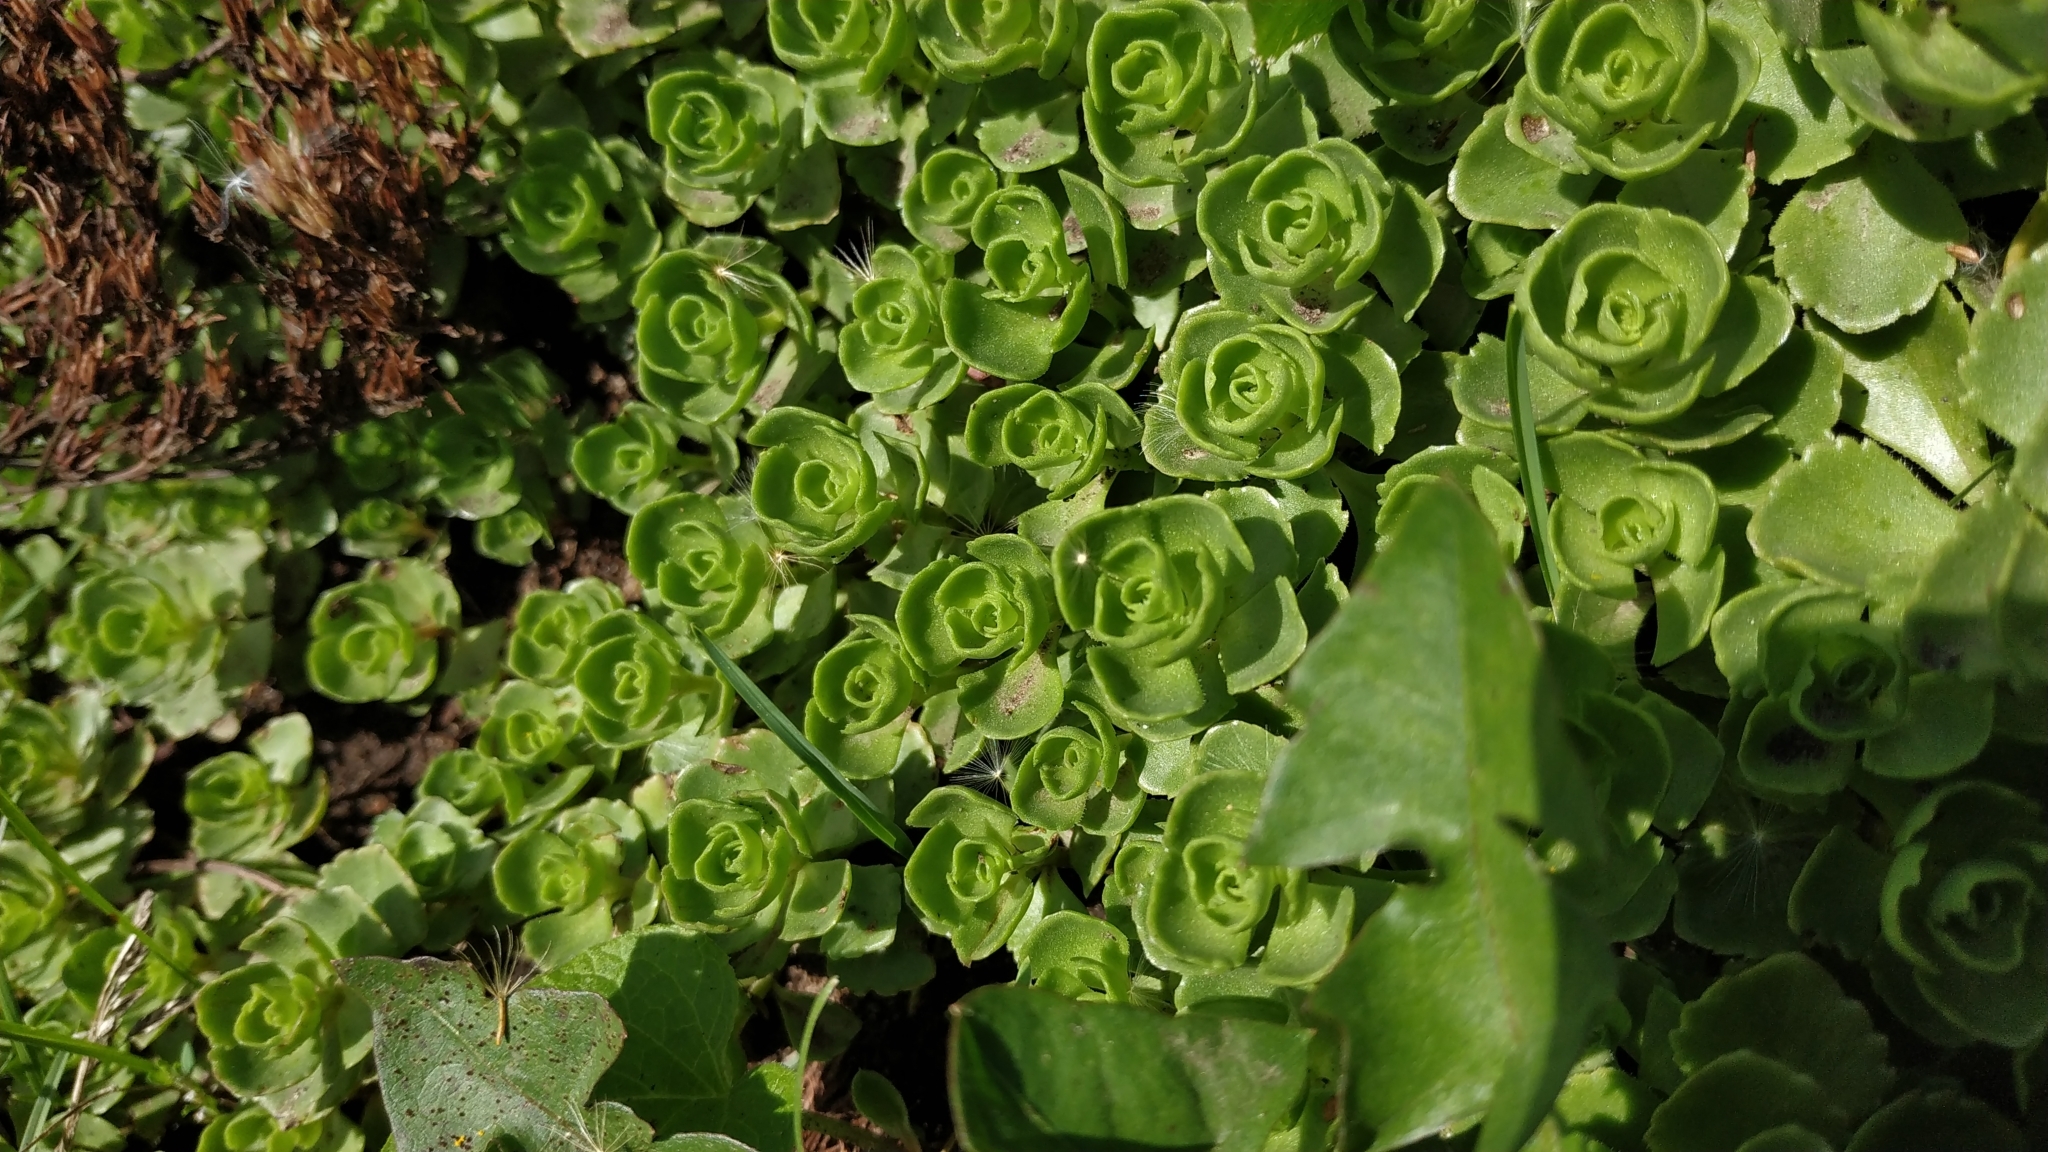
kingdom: Plantae
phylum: Tracheophyta
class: Magnoliopsida
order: Saxifragales
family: Crassulaceae
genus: Phedimus
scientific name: Phedimus spurius
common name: Caucasian stonecrop
